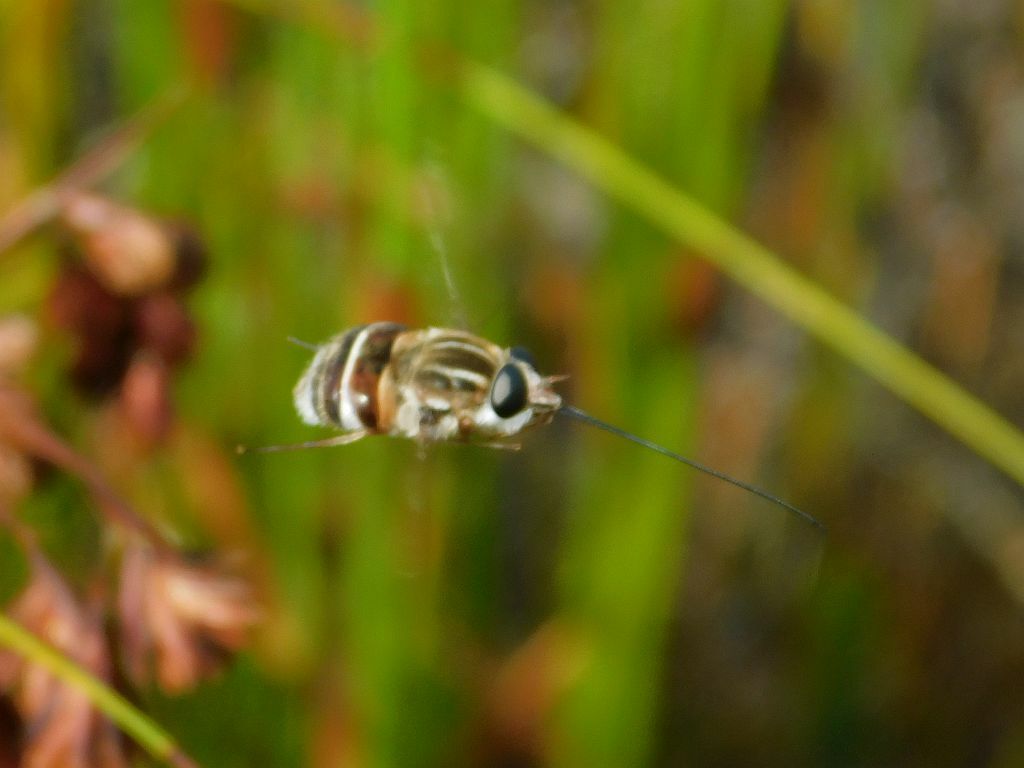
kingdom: Animalia
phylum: Arthropoda
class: Insecta
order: Diptera
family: Tabanidae
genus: Philoliche
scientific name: Philoliche gulosa
